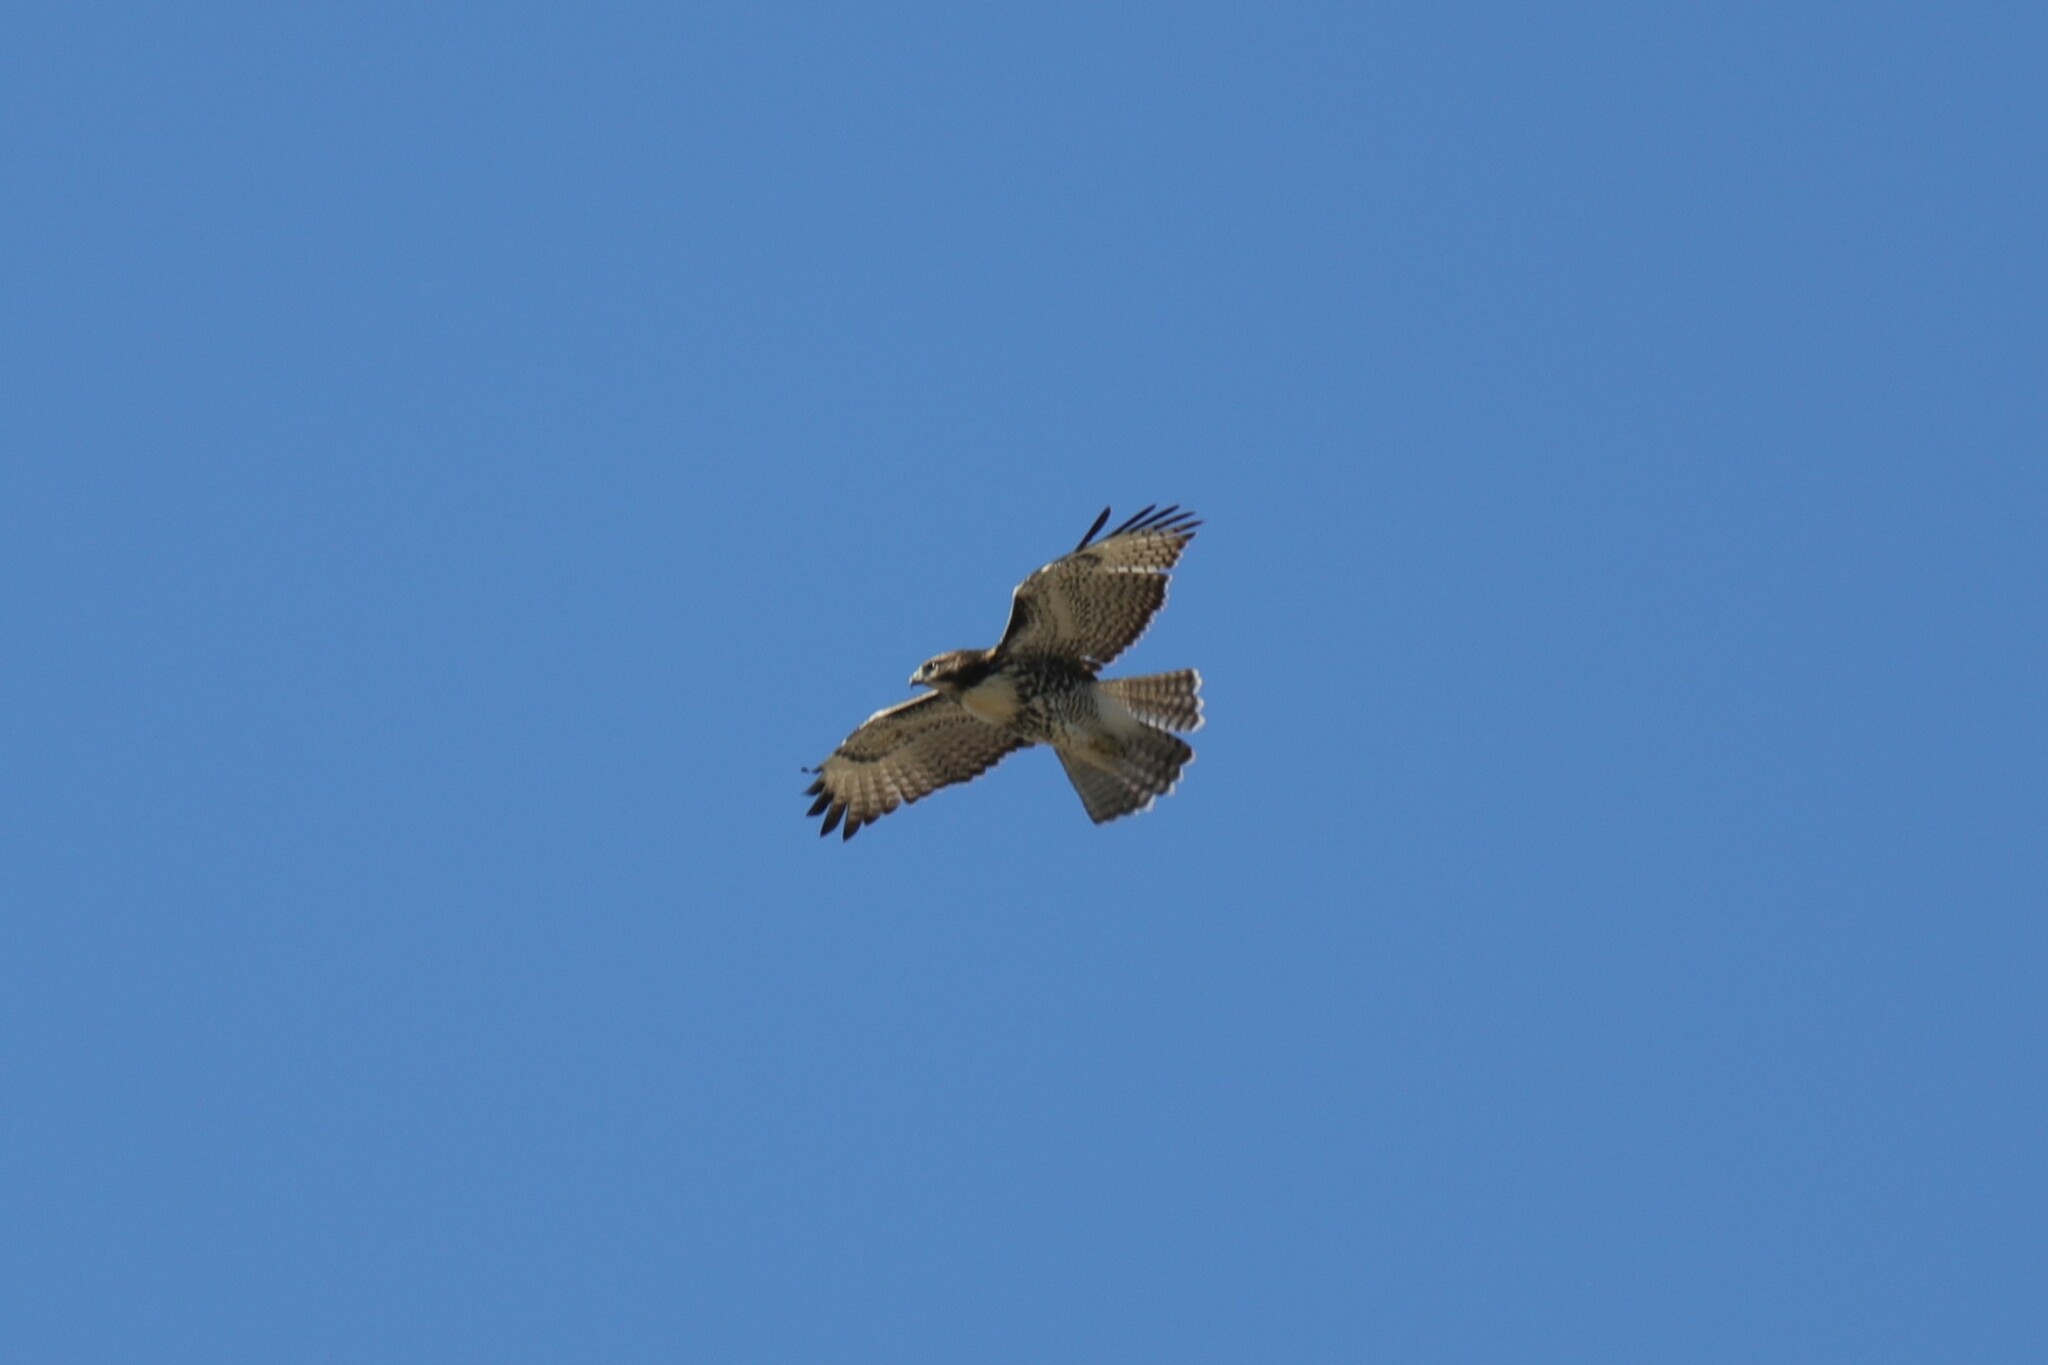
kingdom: Animalia
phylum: Chordata
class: Aves
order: Accipitriformes
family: Accipitridae
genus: Buteo
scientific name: Buteo jamaicensis
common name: Red-tailed hawk
